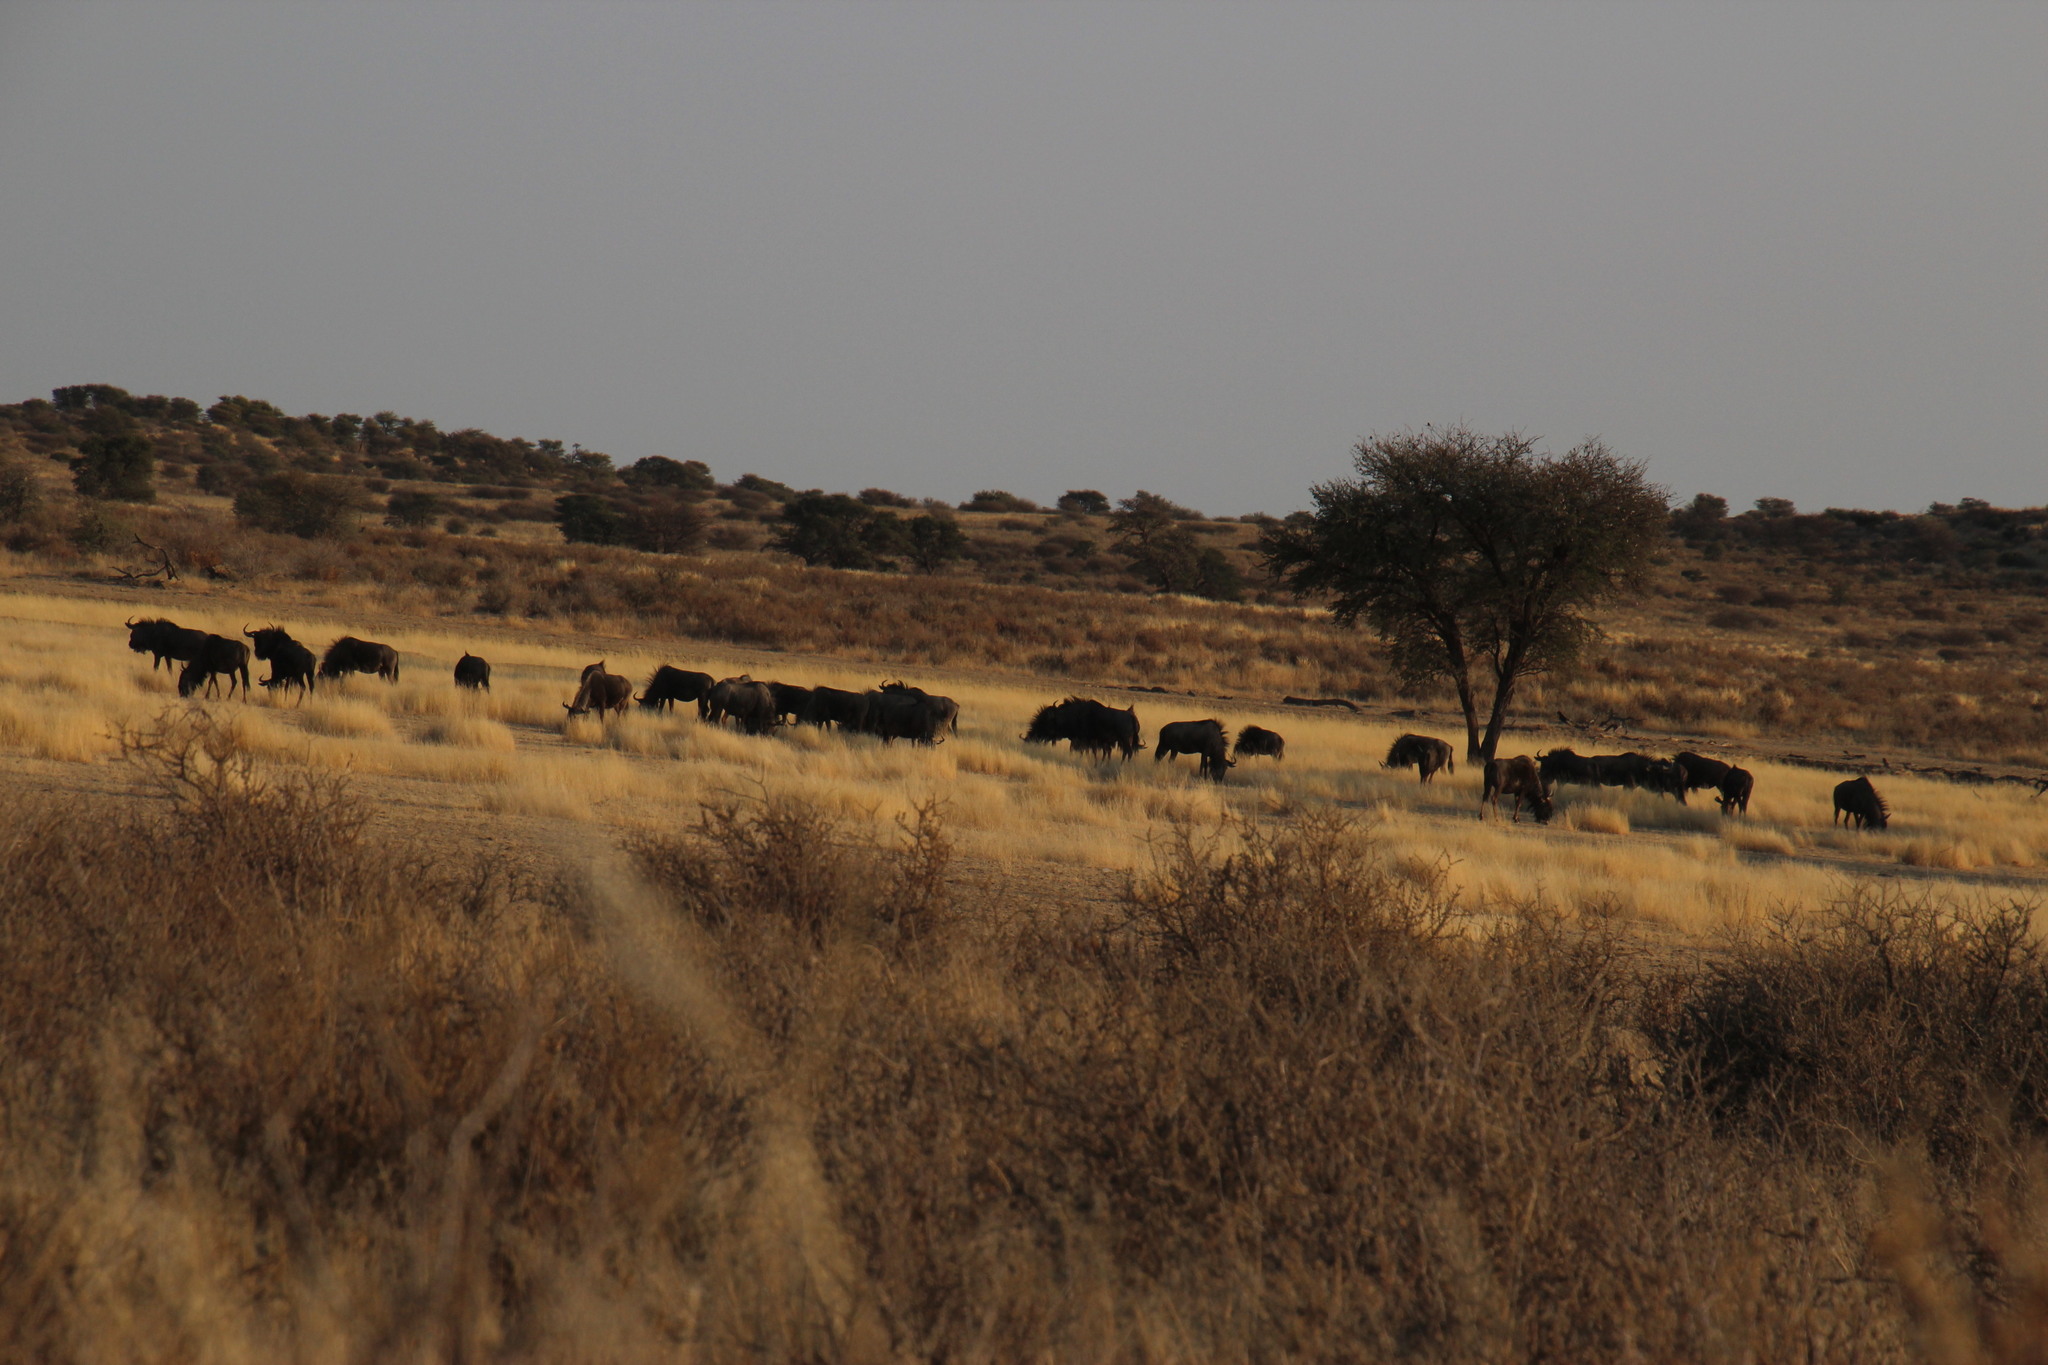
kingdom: Animalia
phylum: Chordata
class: Mammalia
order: Artiodactyla
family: Bovidae
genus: Connochaetes
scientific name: Connochaetes taurinus
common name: Blue wildebeest
